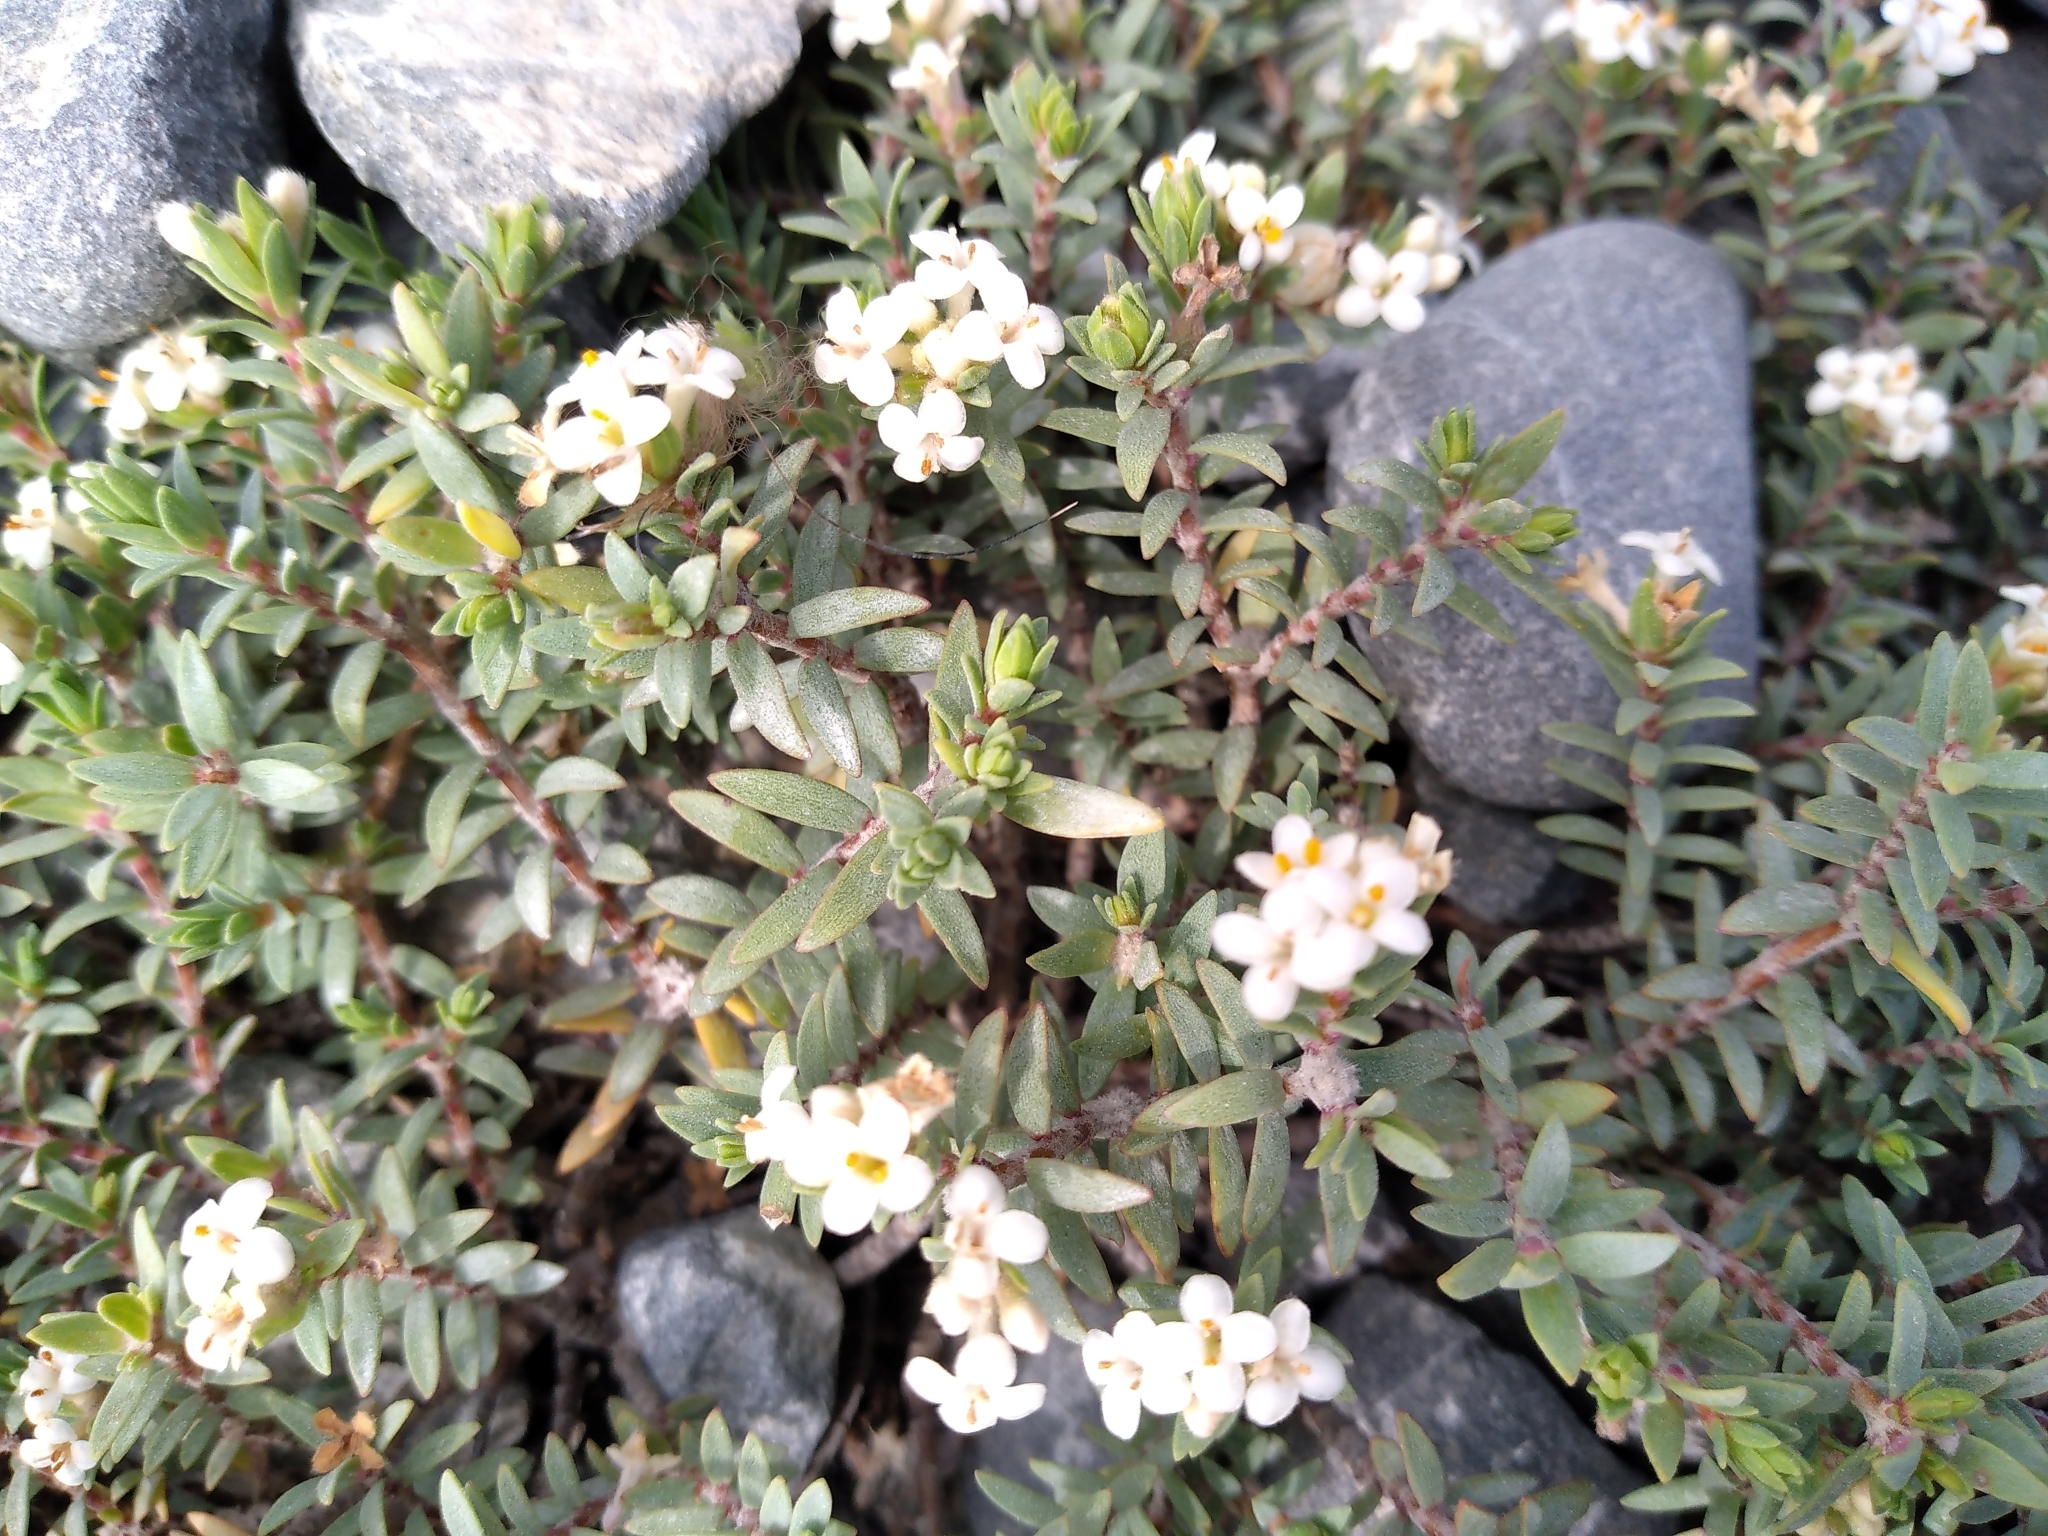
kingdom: Plantae
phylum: Tracheophyta
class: Magnoliopsida
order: Malvales
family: Thymelaeaceae
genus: Pimelea
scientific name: Pimelea prostrata
